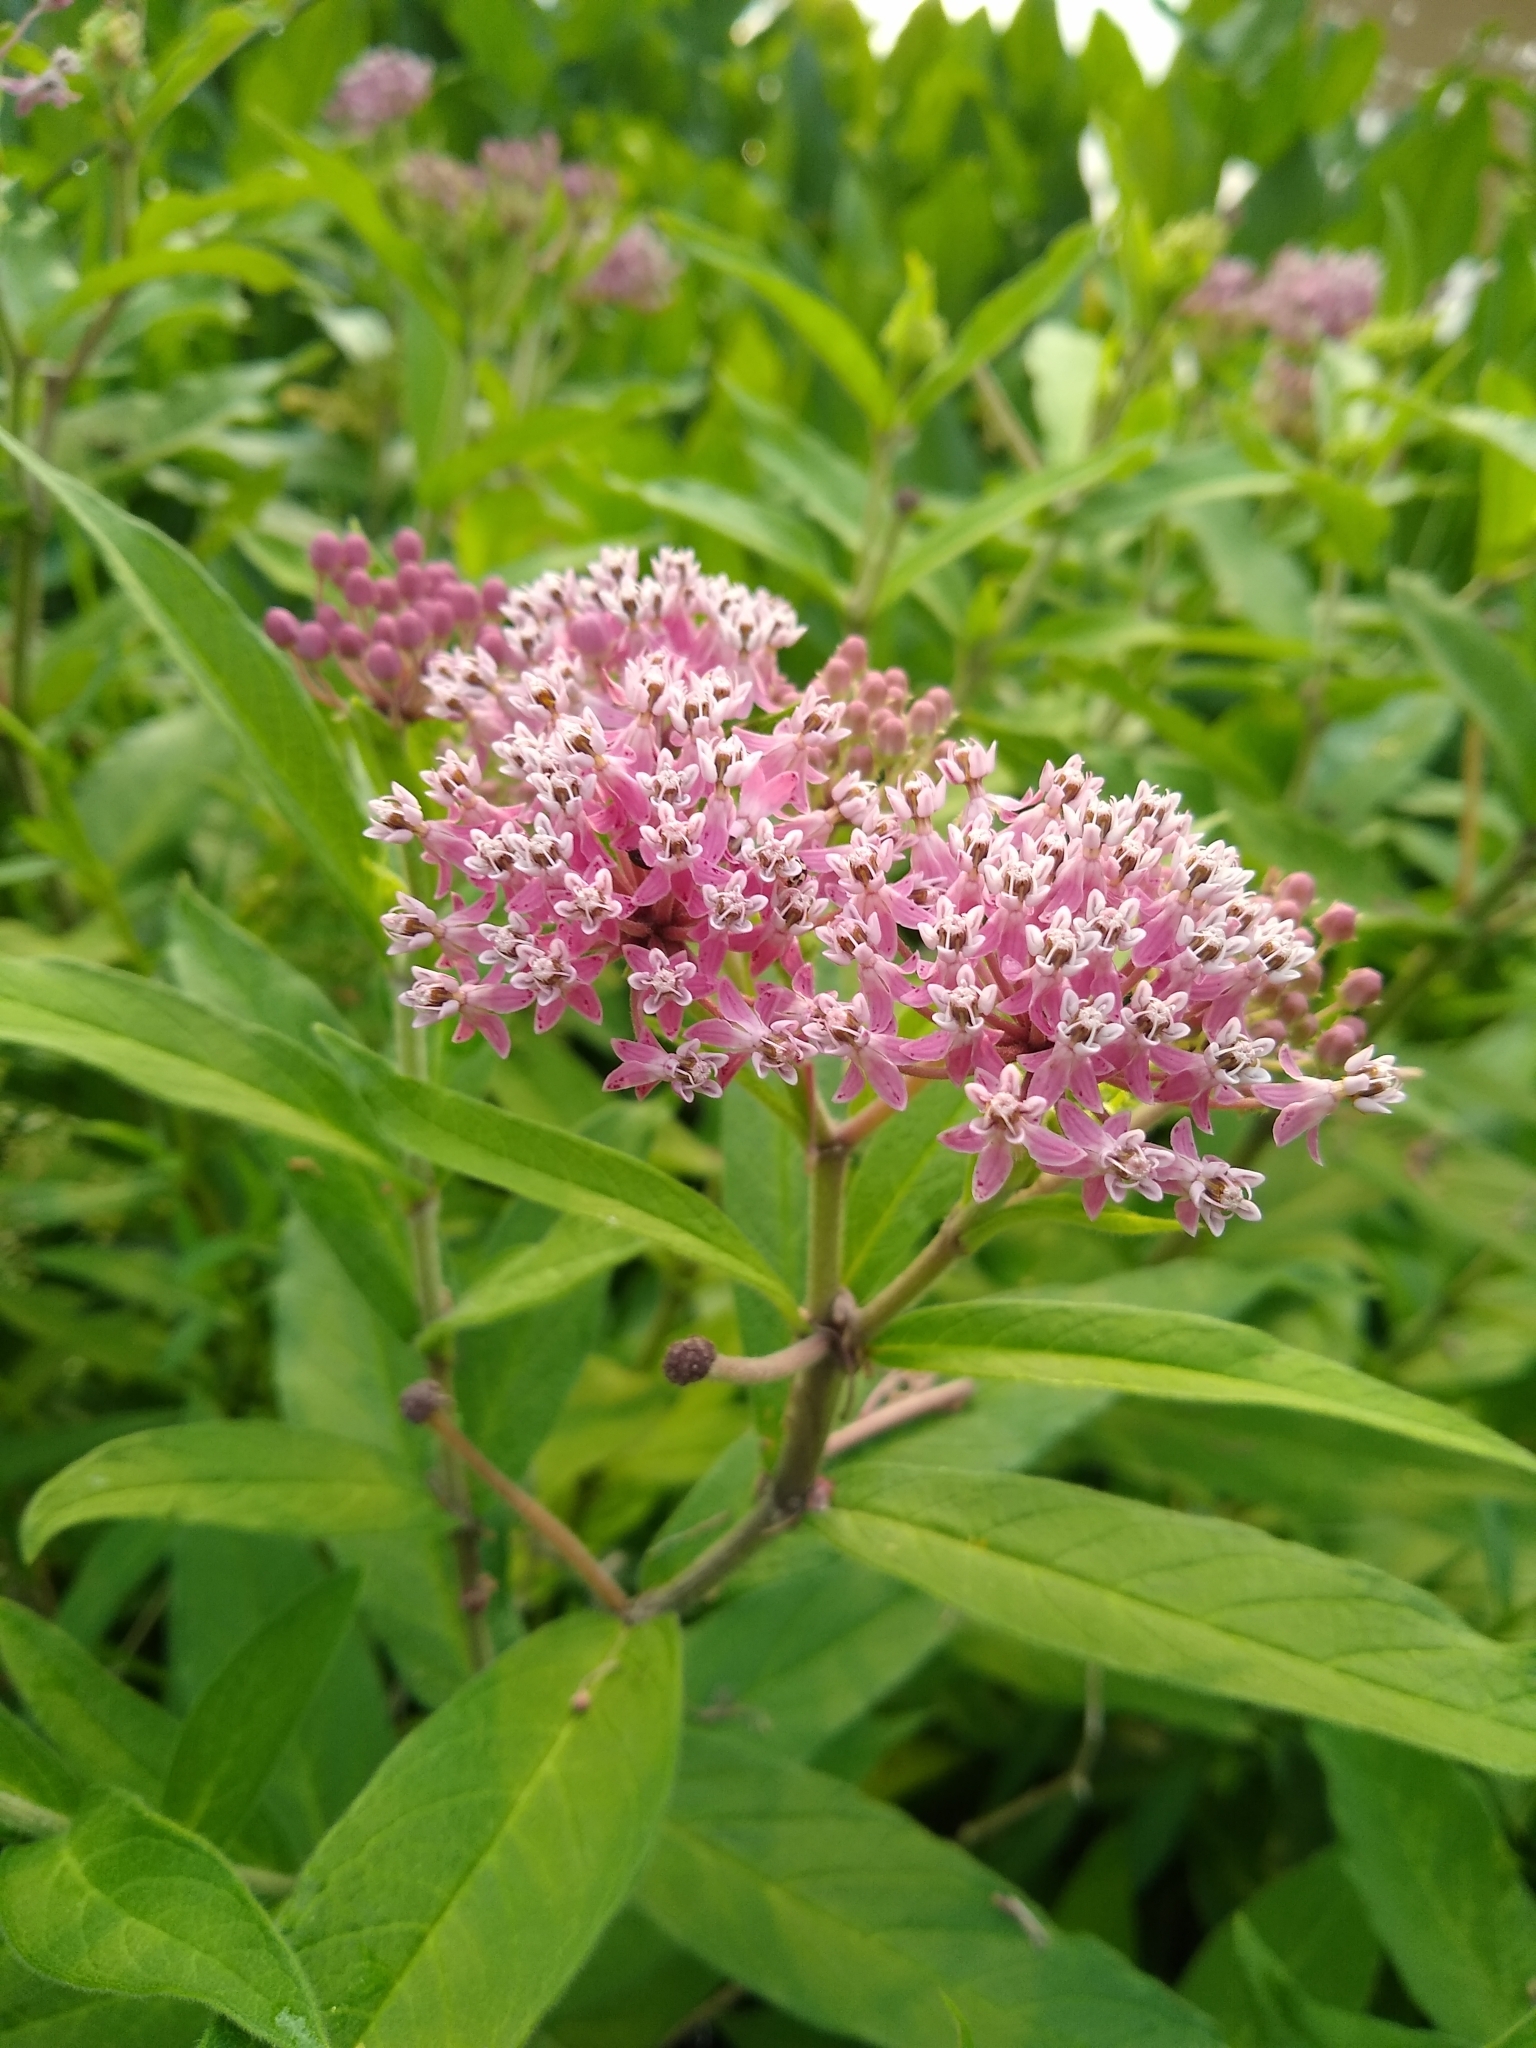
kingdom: Plantae
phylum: Tracheophyta
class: Magnoliopsida
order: Gentianales
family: Apocynaceae
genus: Asclepias
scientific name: Asclepias incarnata
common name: Swamp milkweed
